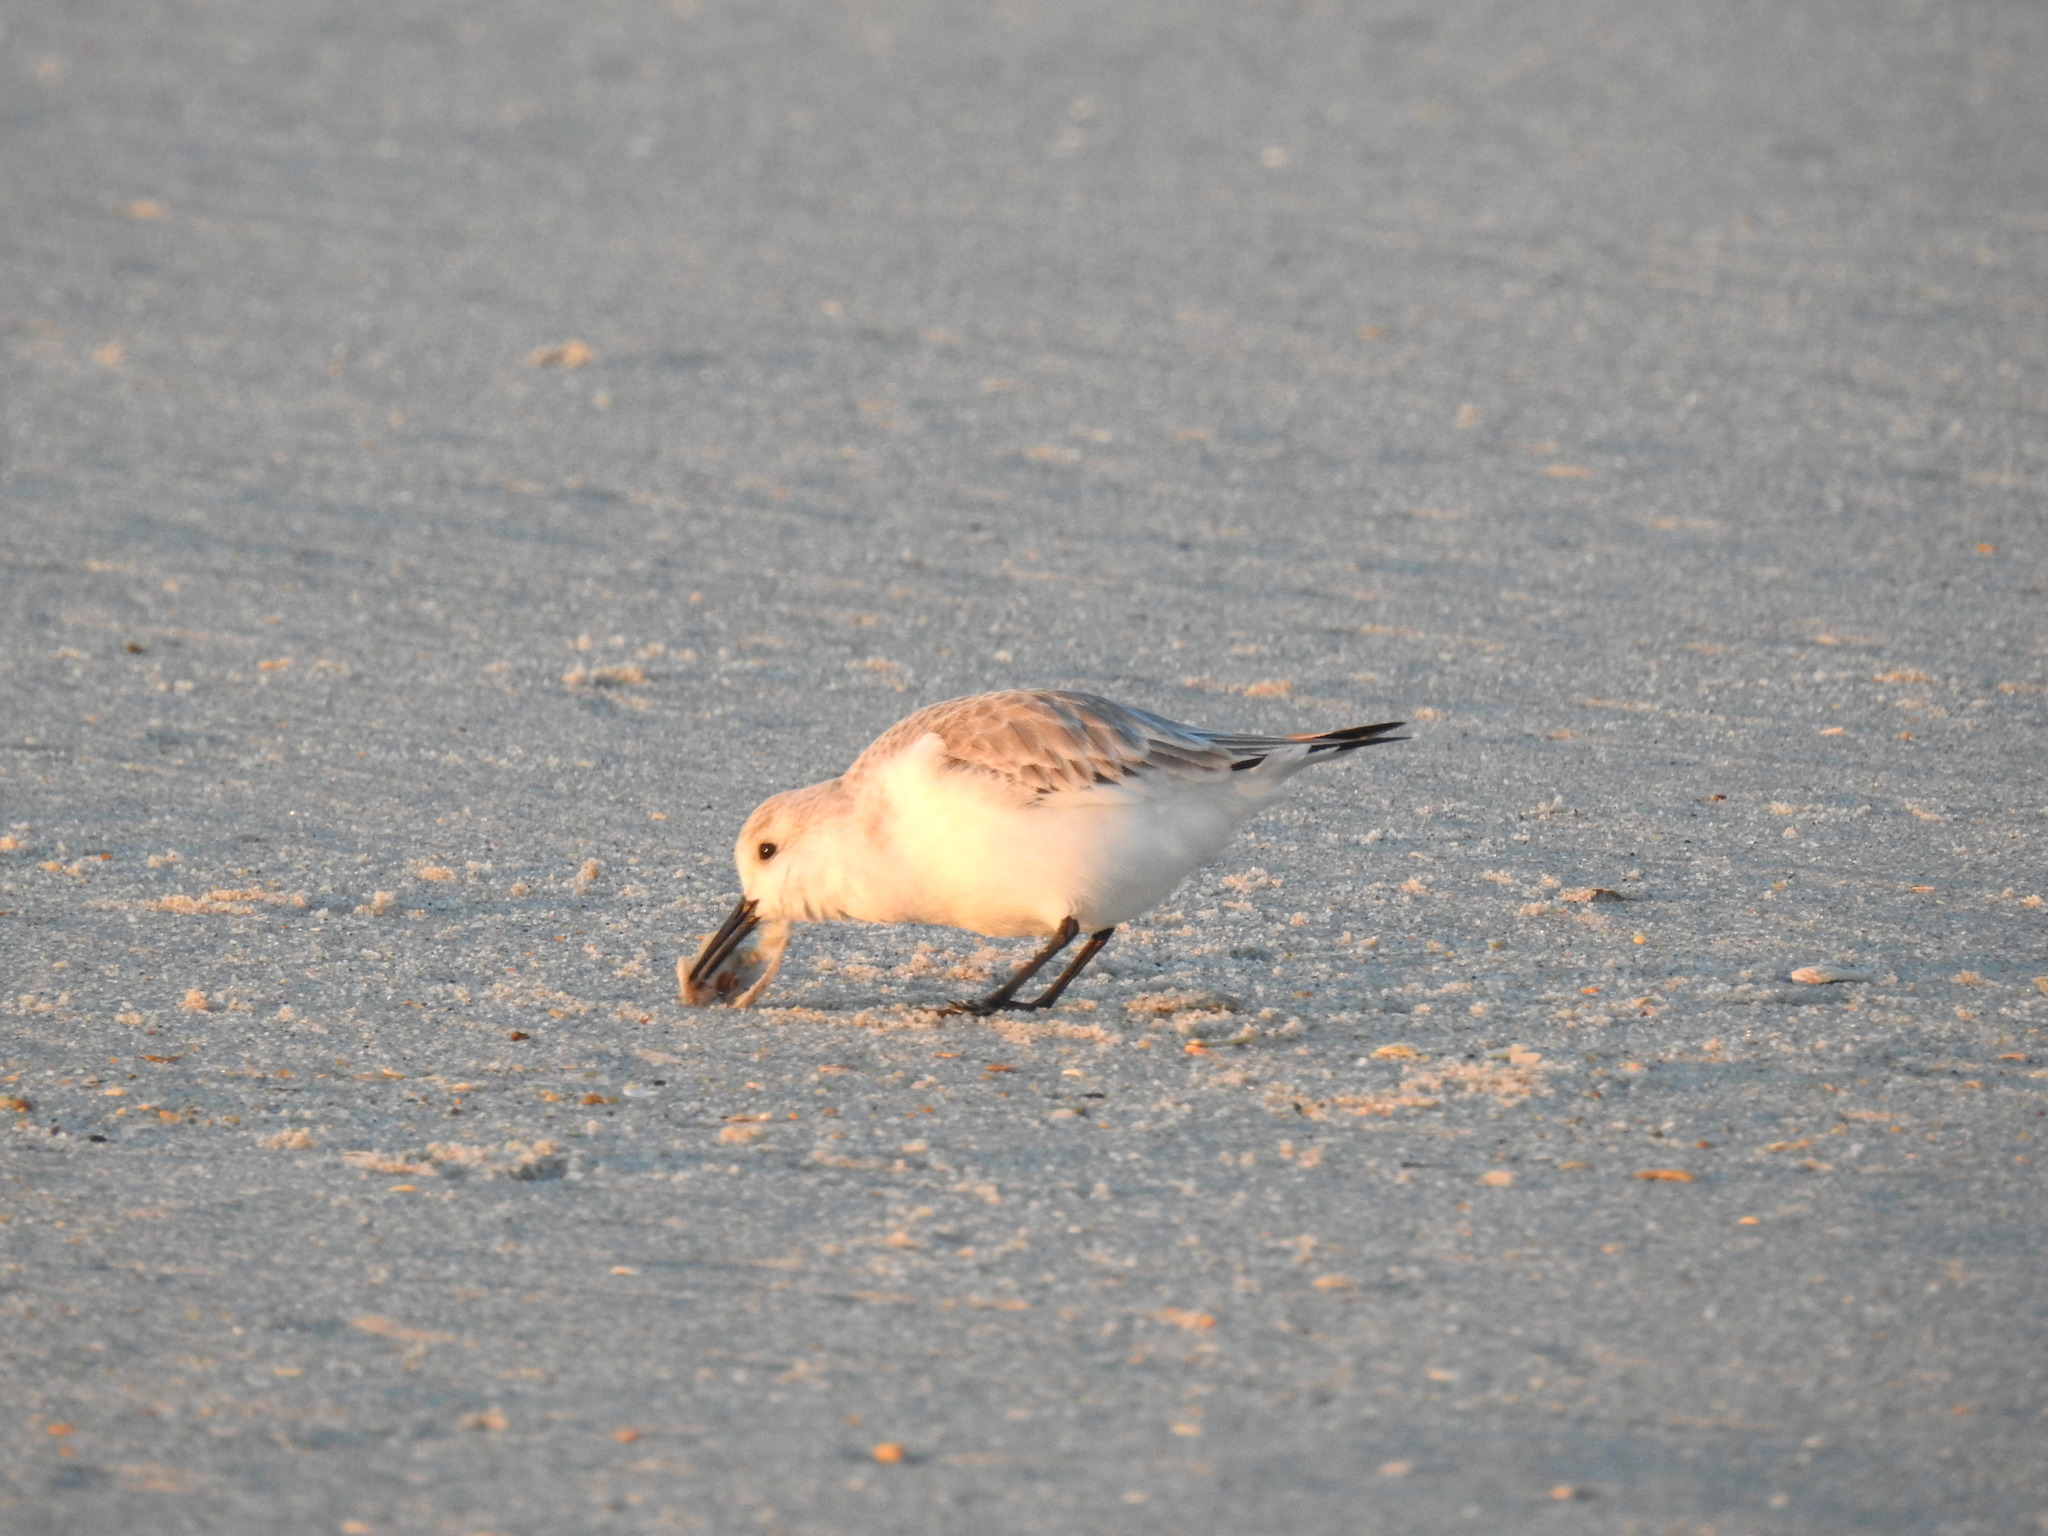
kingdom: Animalia
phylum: Chordata
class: Aves
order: Charadriiformes
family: Scolopacidae
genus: Calidris
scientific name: Calidris alba
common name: Sanderling
